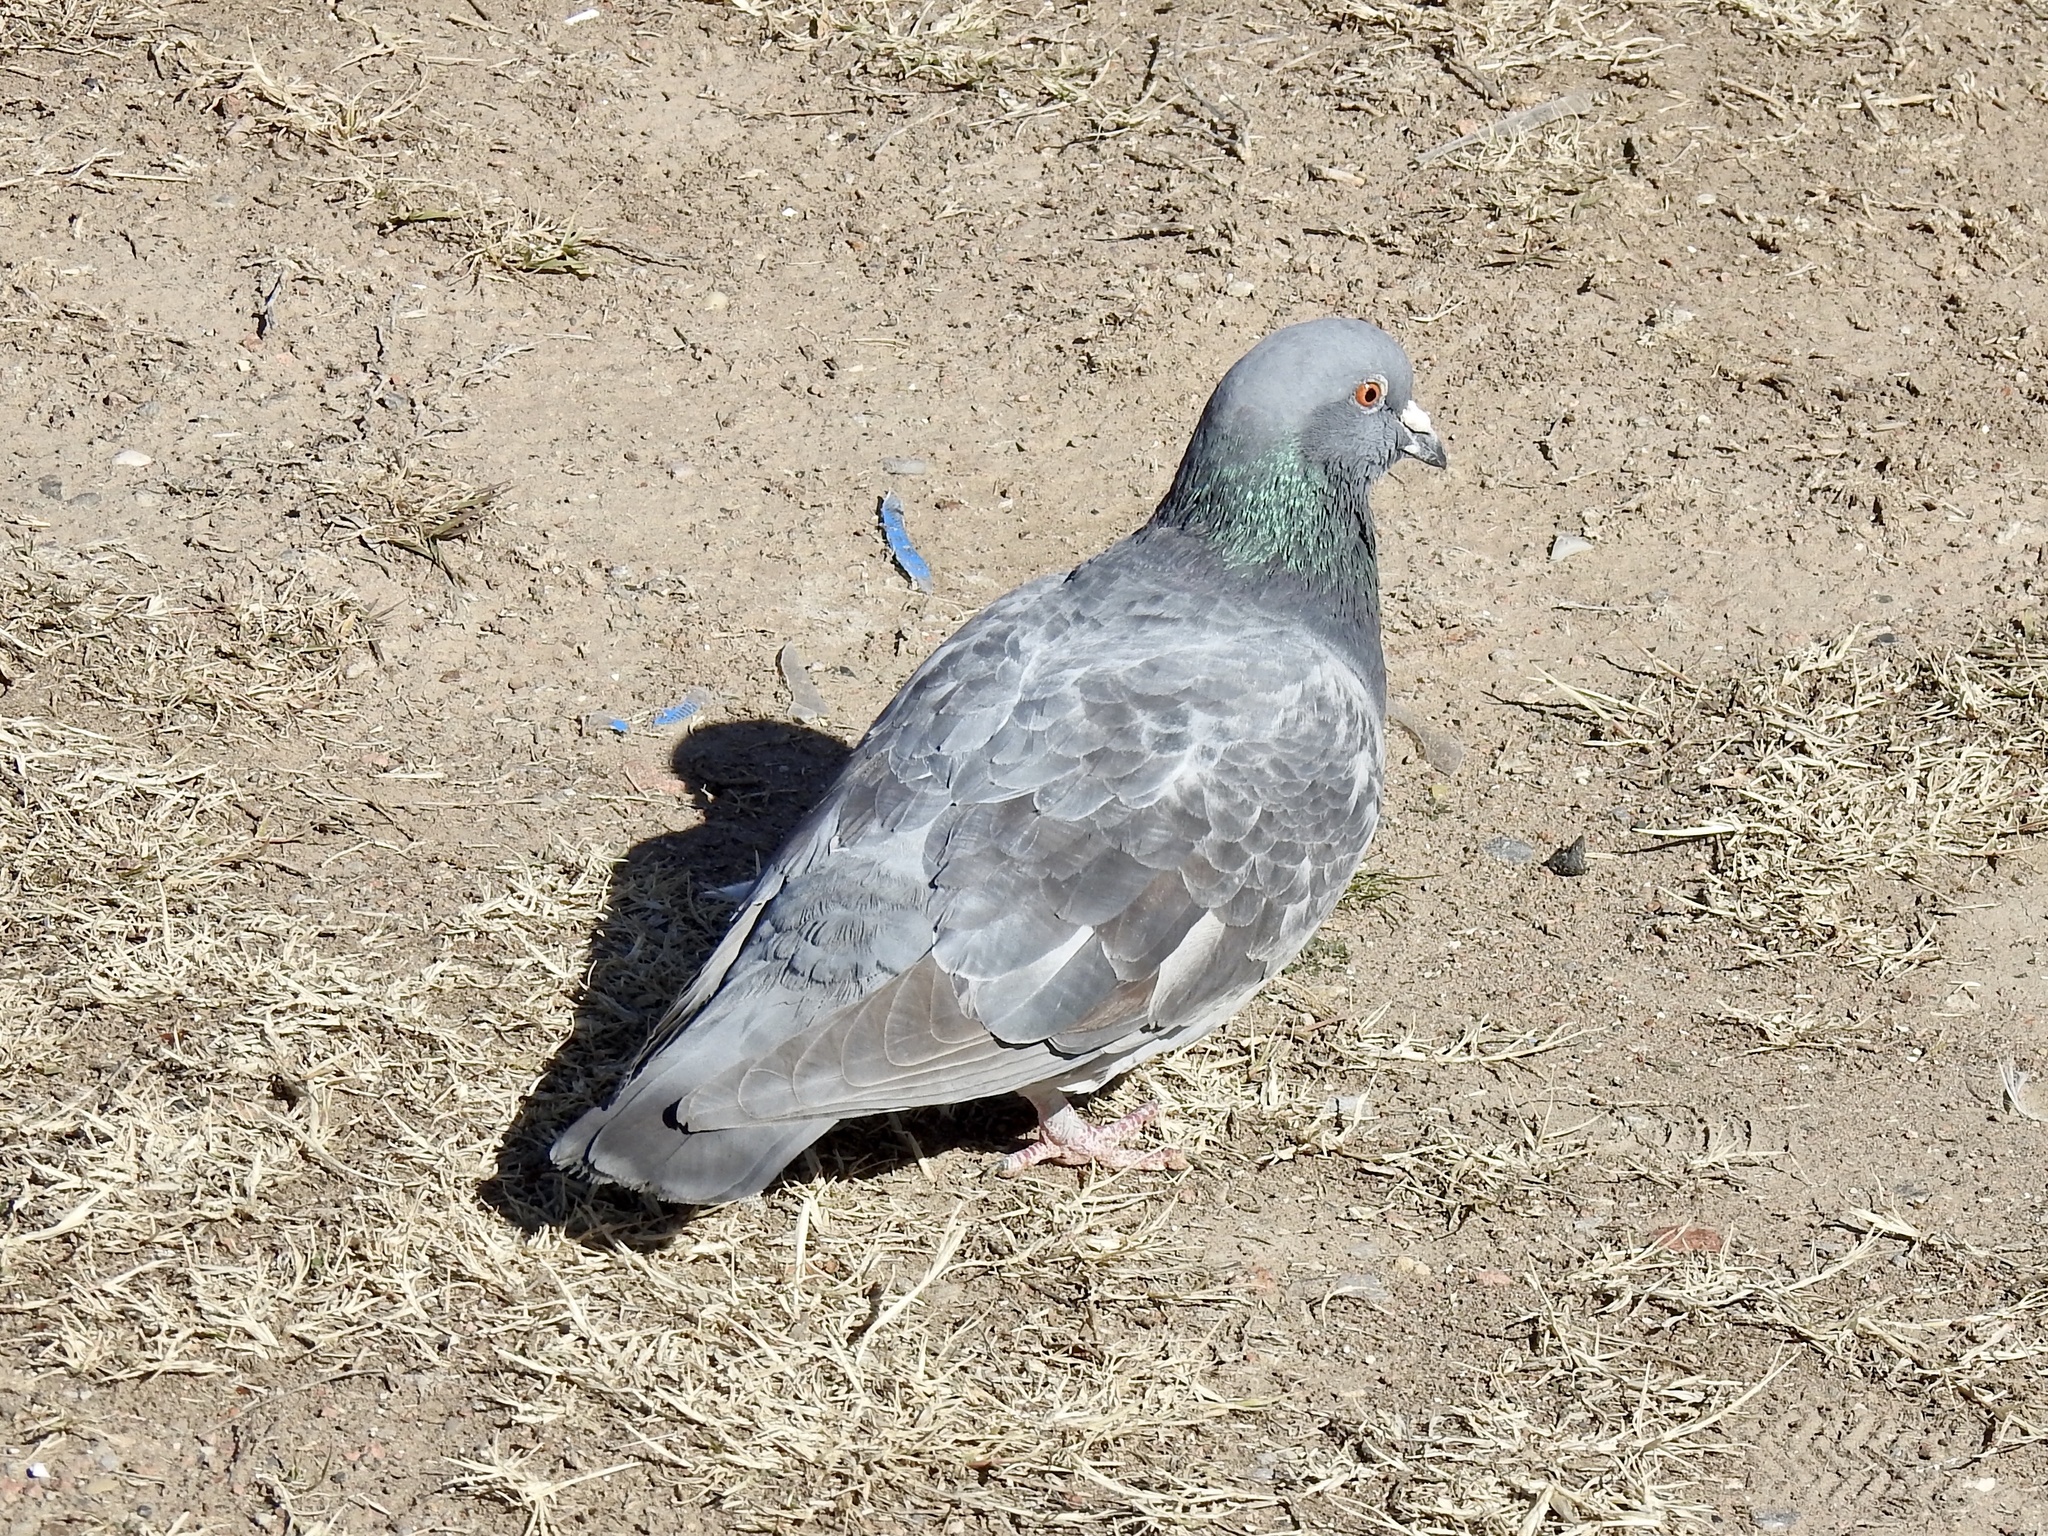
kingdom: Animalia
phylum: Chordata
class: Aves
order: Columbiformes
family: Columbidae
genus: Columba
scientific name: Columba livia
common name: Rock pigeon
